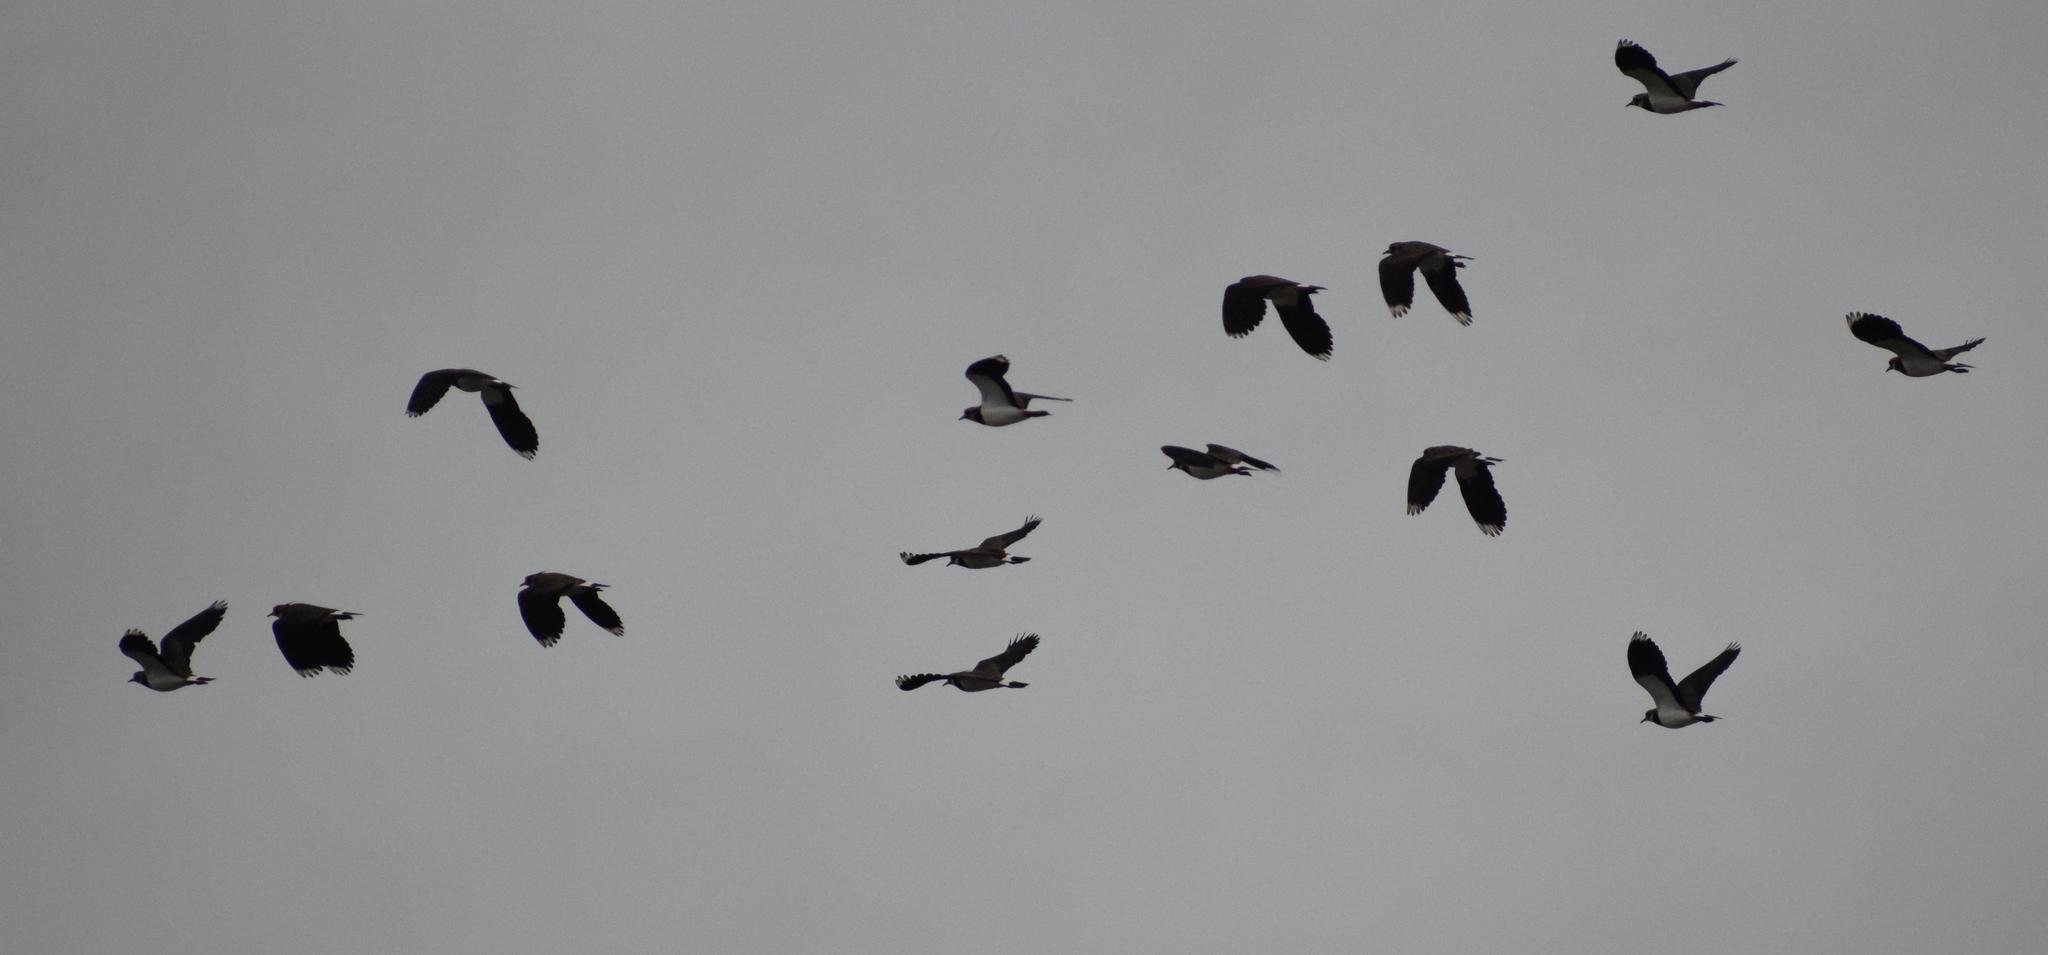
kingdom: Animalia
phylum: Chordata
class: Aves
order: Charadriiformes
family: Charadriidae
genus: Vanellus
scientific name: Vanellus vanellus
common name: Northern lapwing
